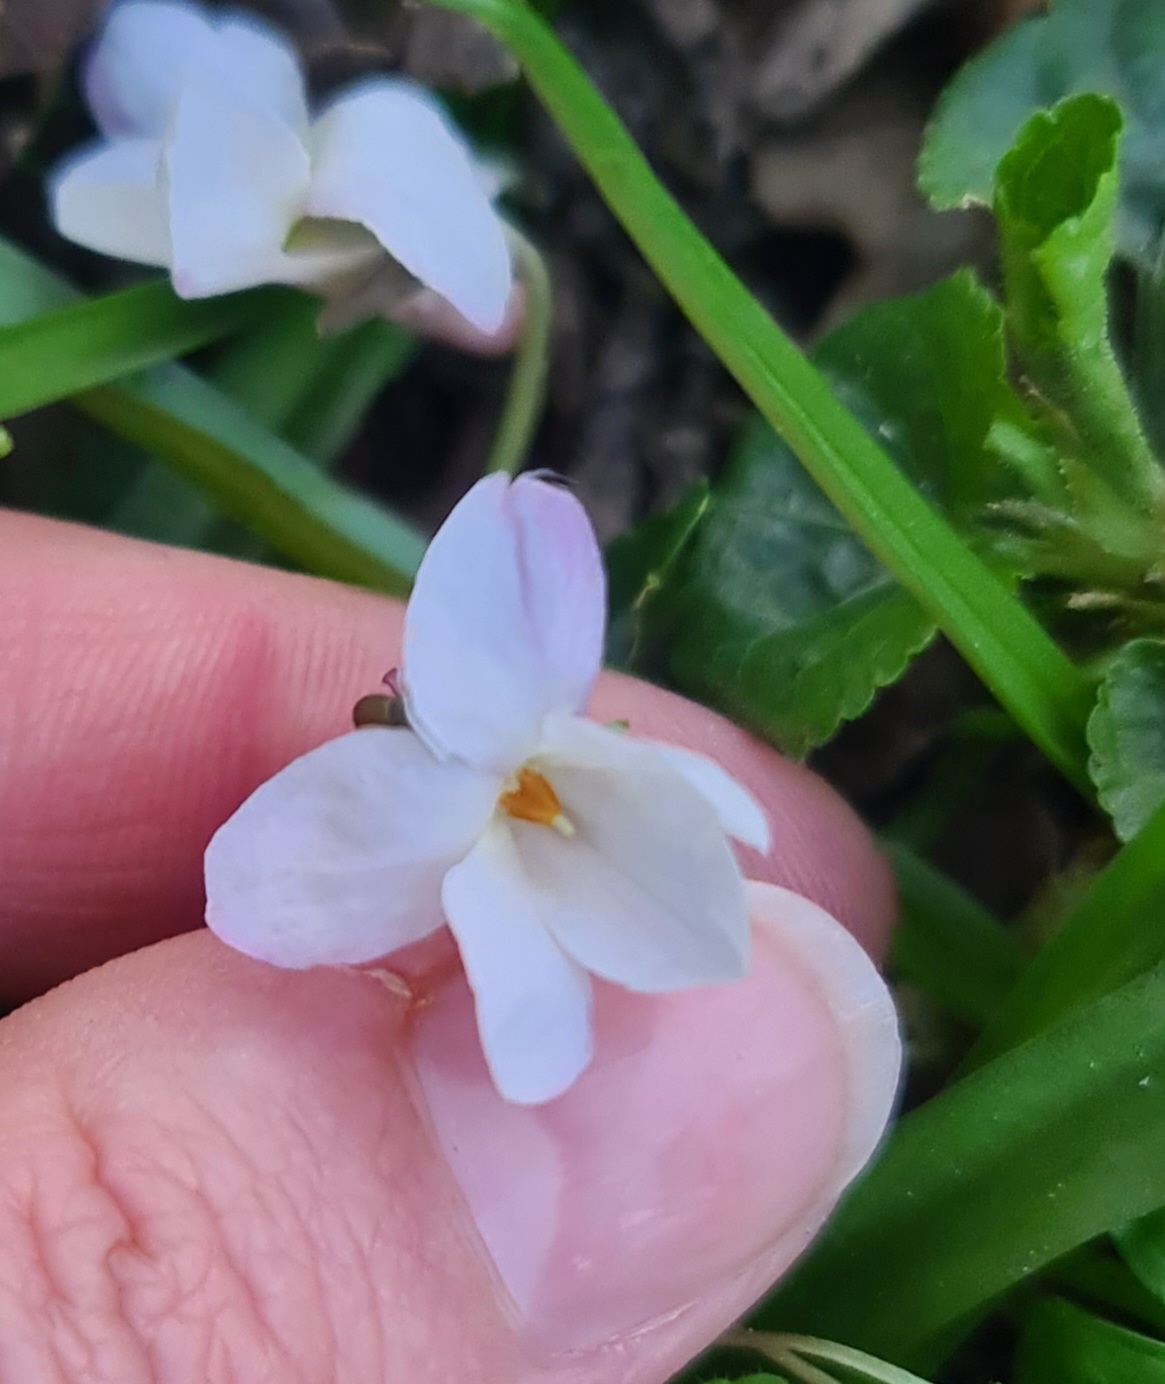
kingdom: Plantae
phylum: Tracheophyta
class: Magnoliopsida
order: Malpighiales
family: Violaceae
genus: Viola
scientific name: Viola odorata
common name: Sweet violet
